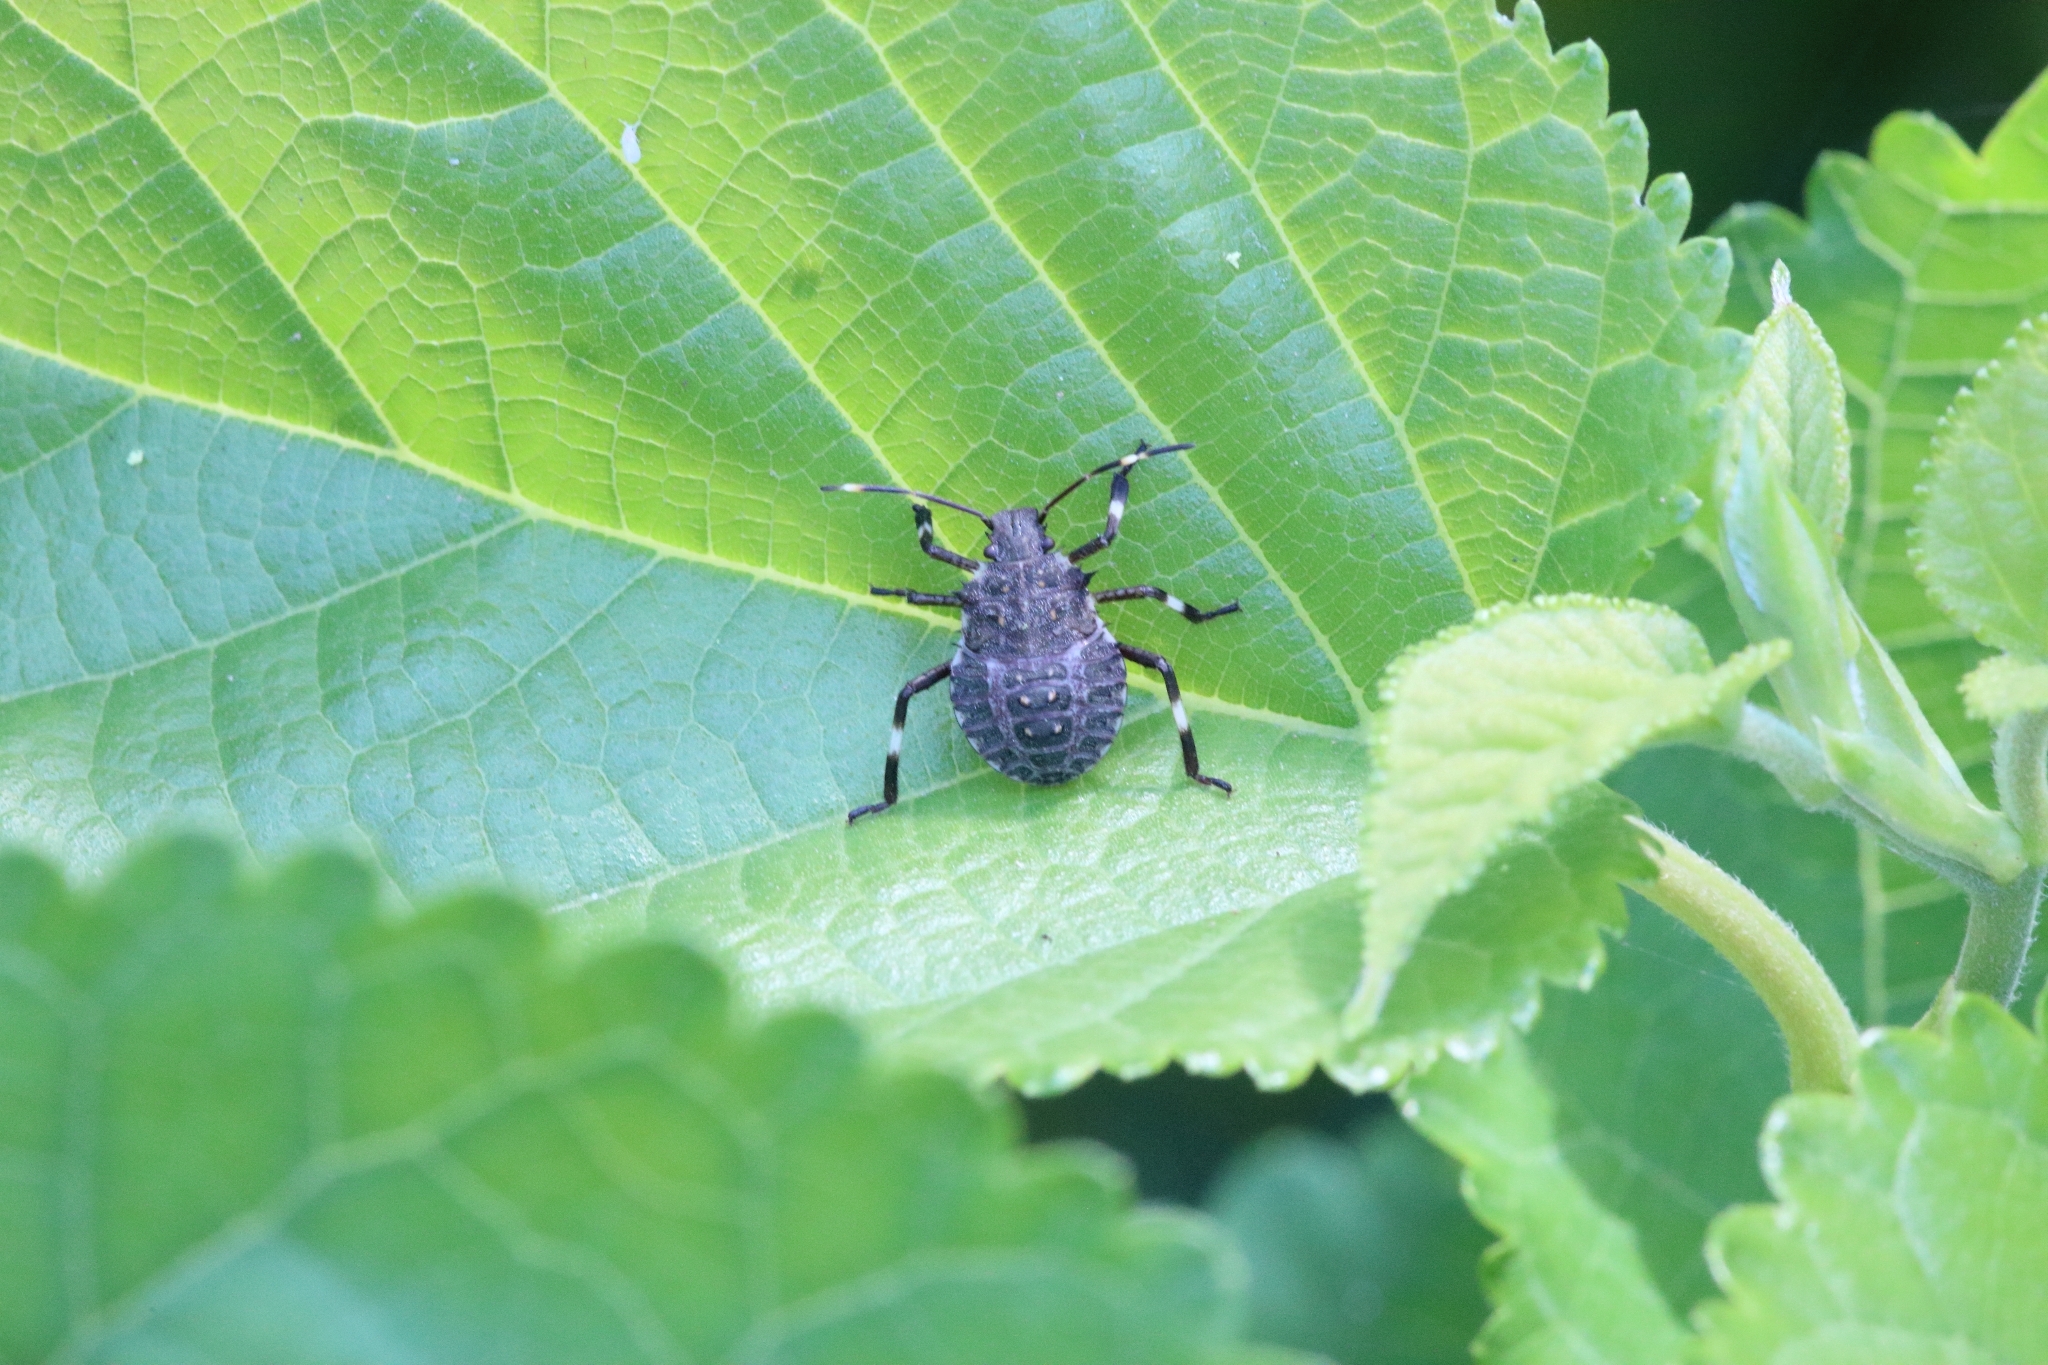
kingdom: Animalia
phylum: Arthropoda
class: Insecta
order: Hemiptera
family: Pentatomidae
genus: Halyomorpha
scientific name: Halyomorpha halys
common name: Brown marmorated stink bug
